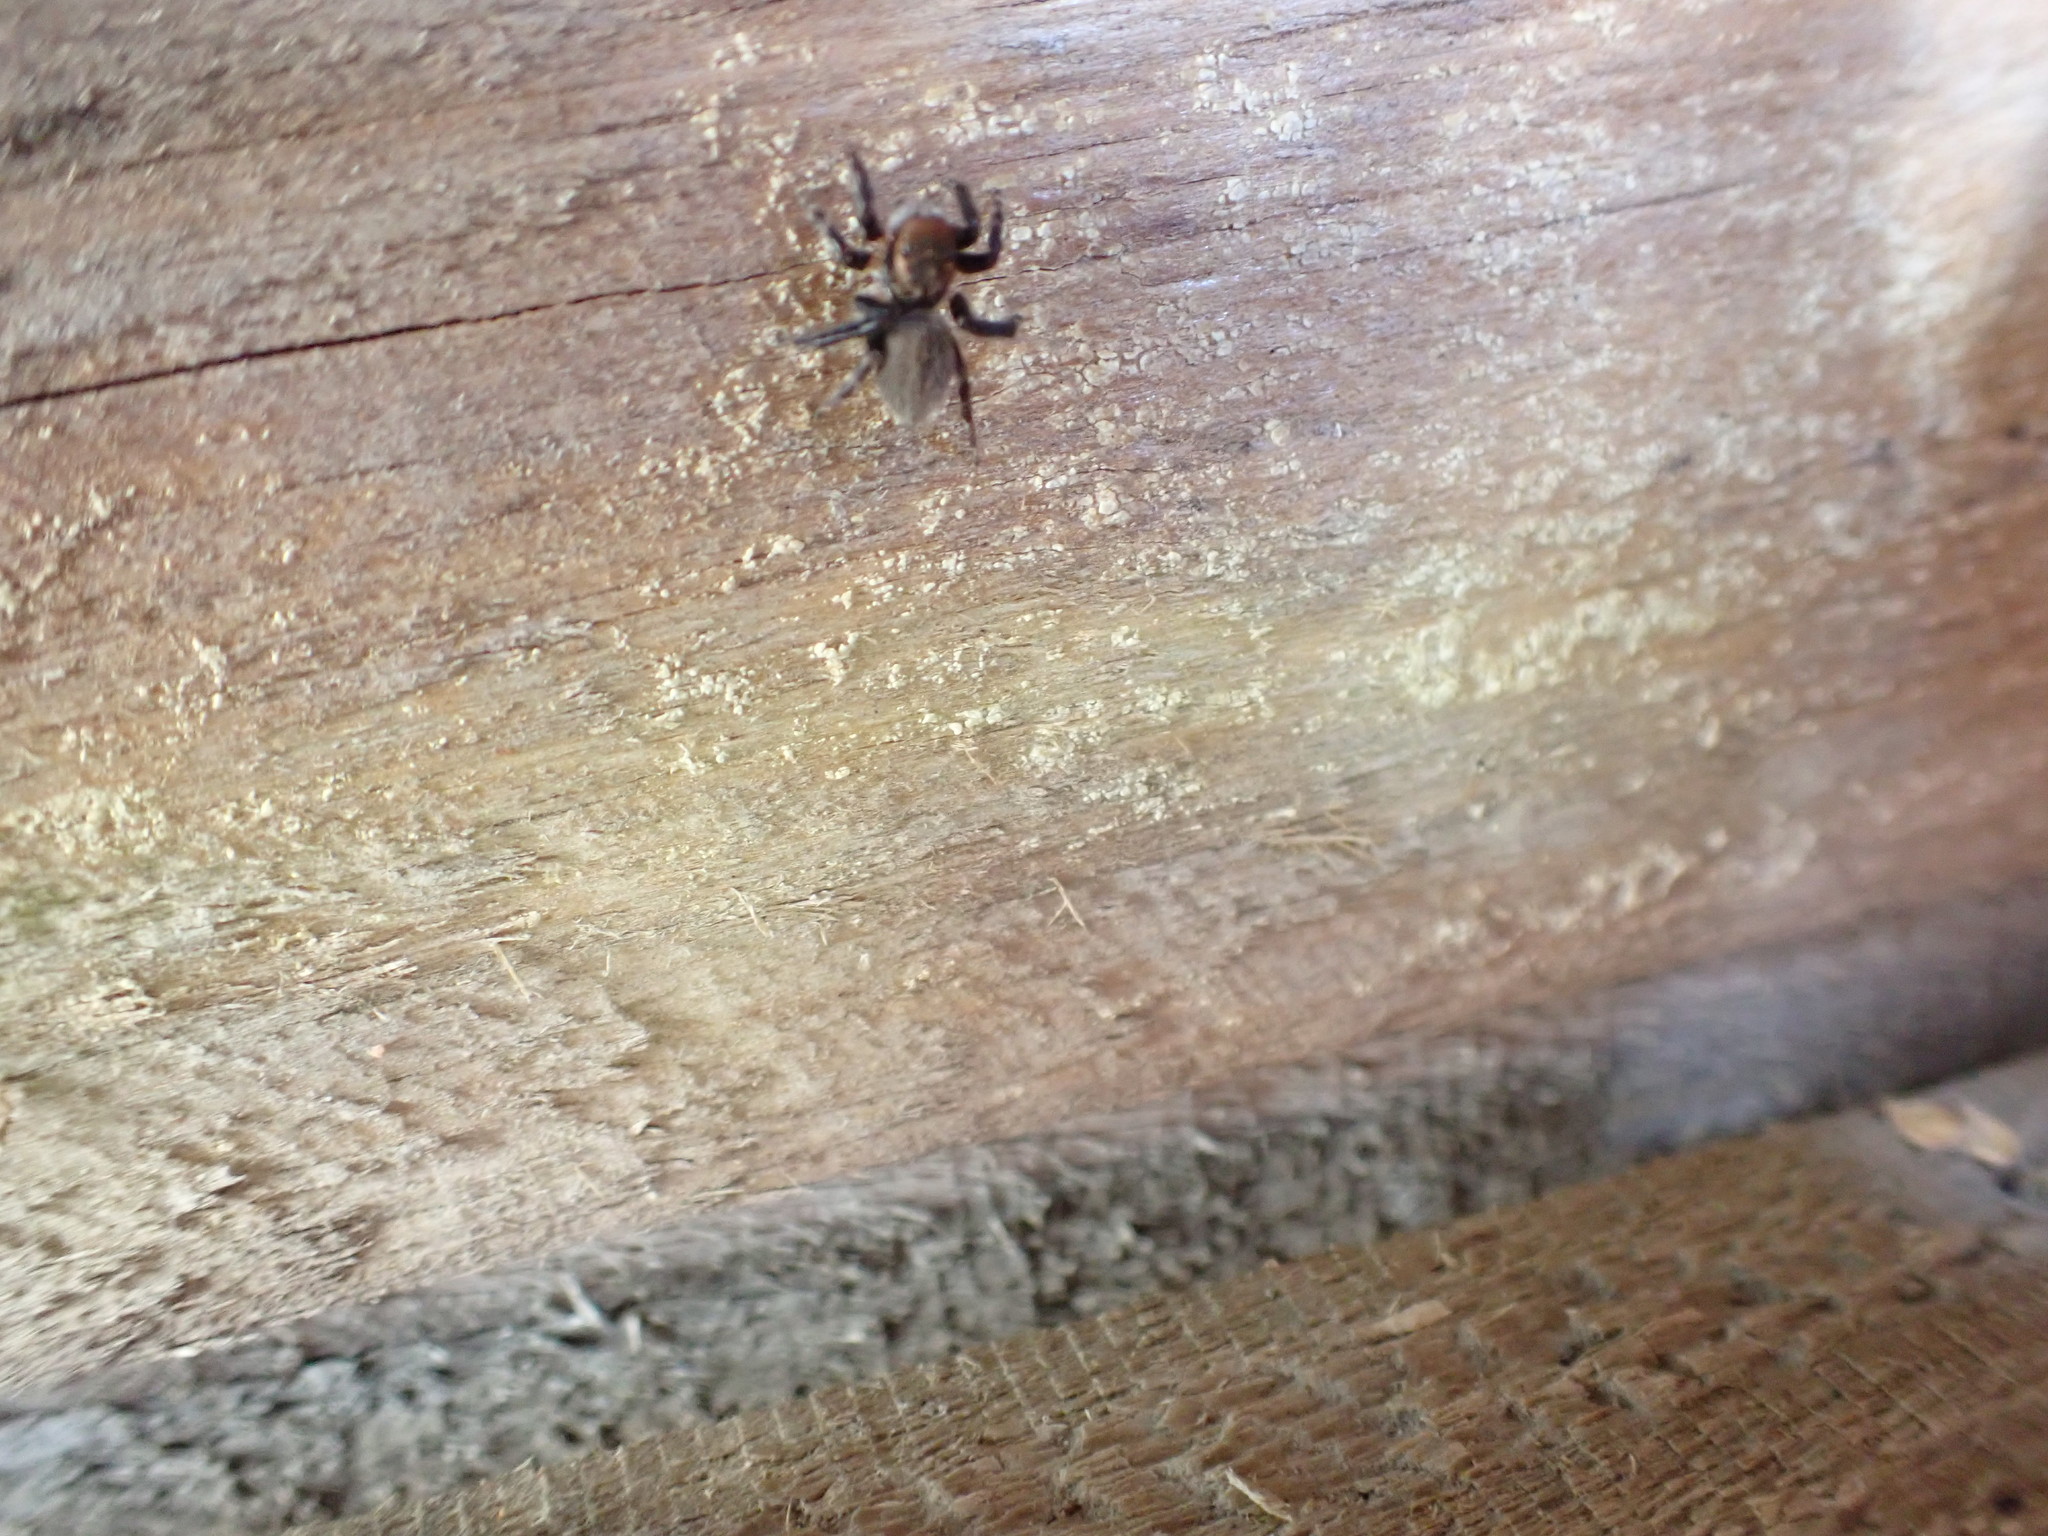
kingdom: Animalia
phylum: Arthropoda
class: Arachnida
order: Araneae
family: Salticidae
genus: Maratus
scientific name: Maratus griseus
